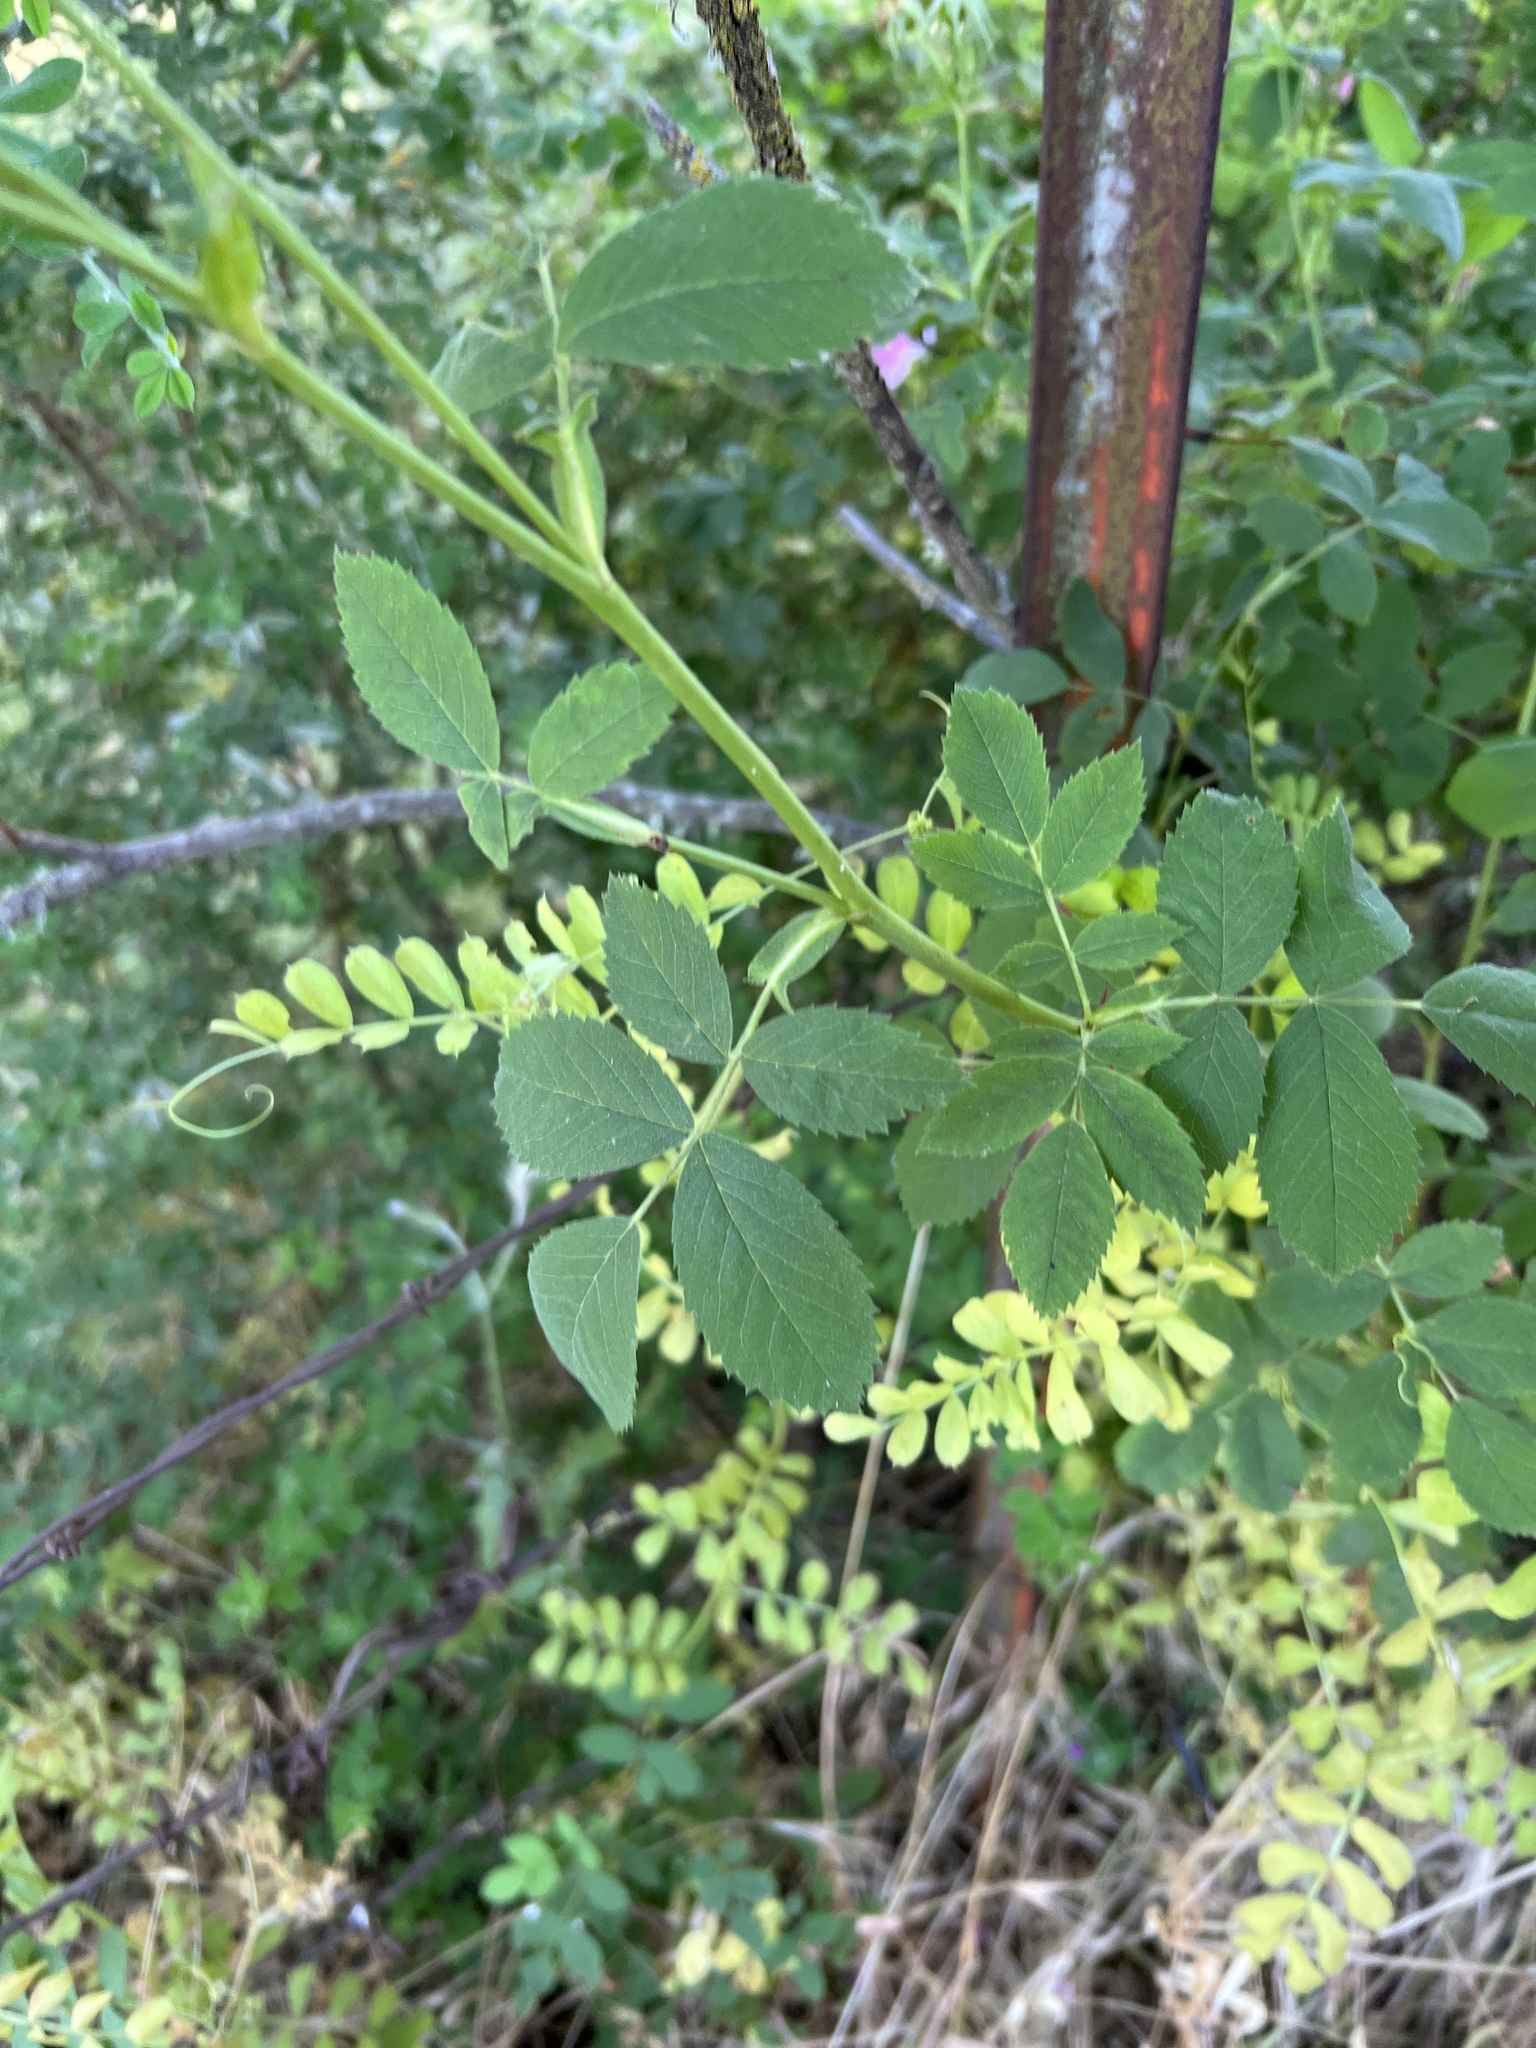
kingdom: Plantae
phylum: Tracheophyta
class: Magnoliopsida
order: Rosales
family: Rosaceae
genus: Rosa
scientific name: Rosa californica
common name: California rose
